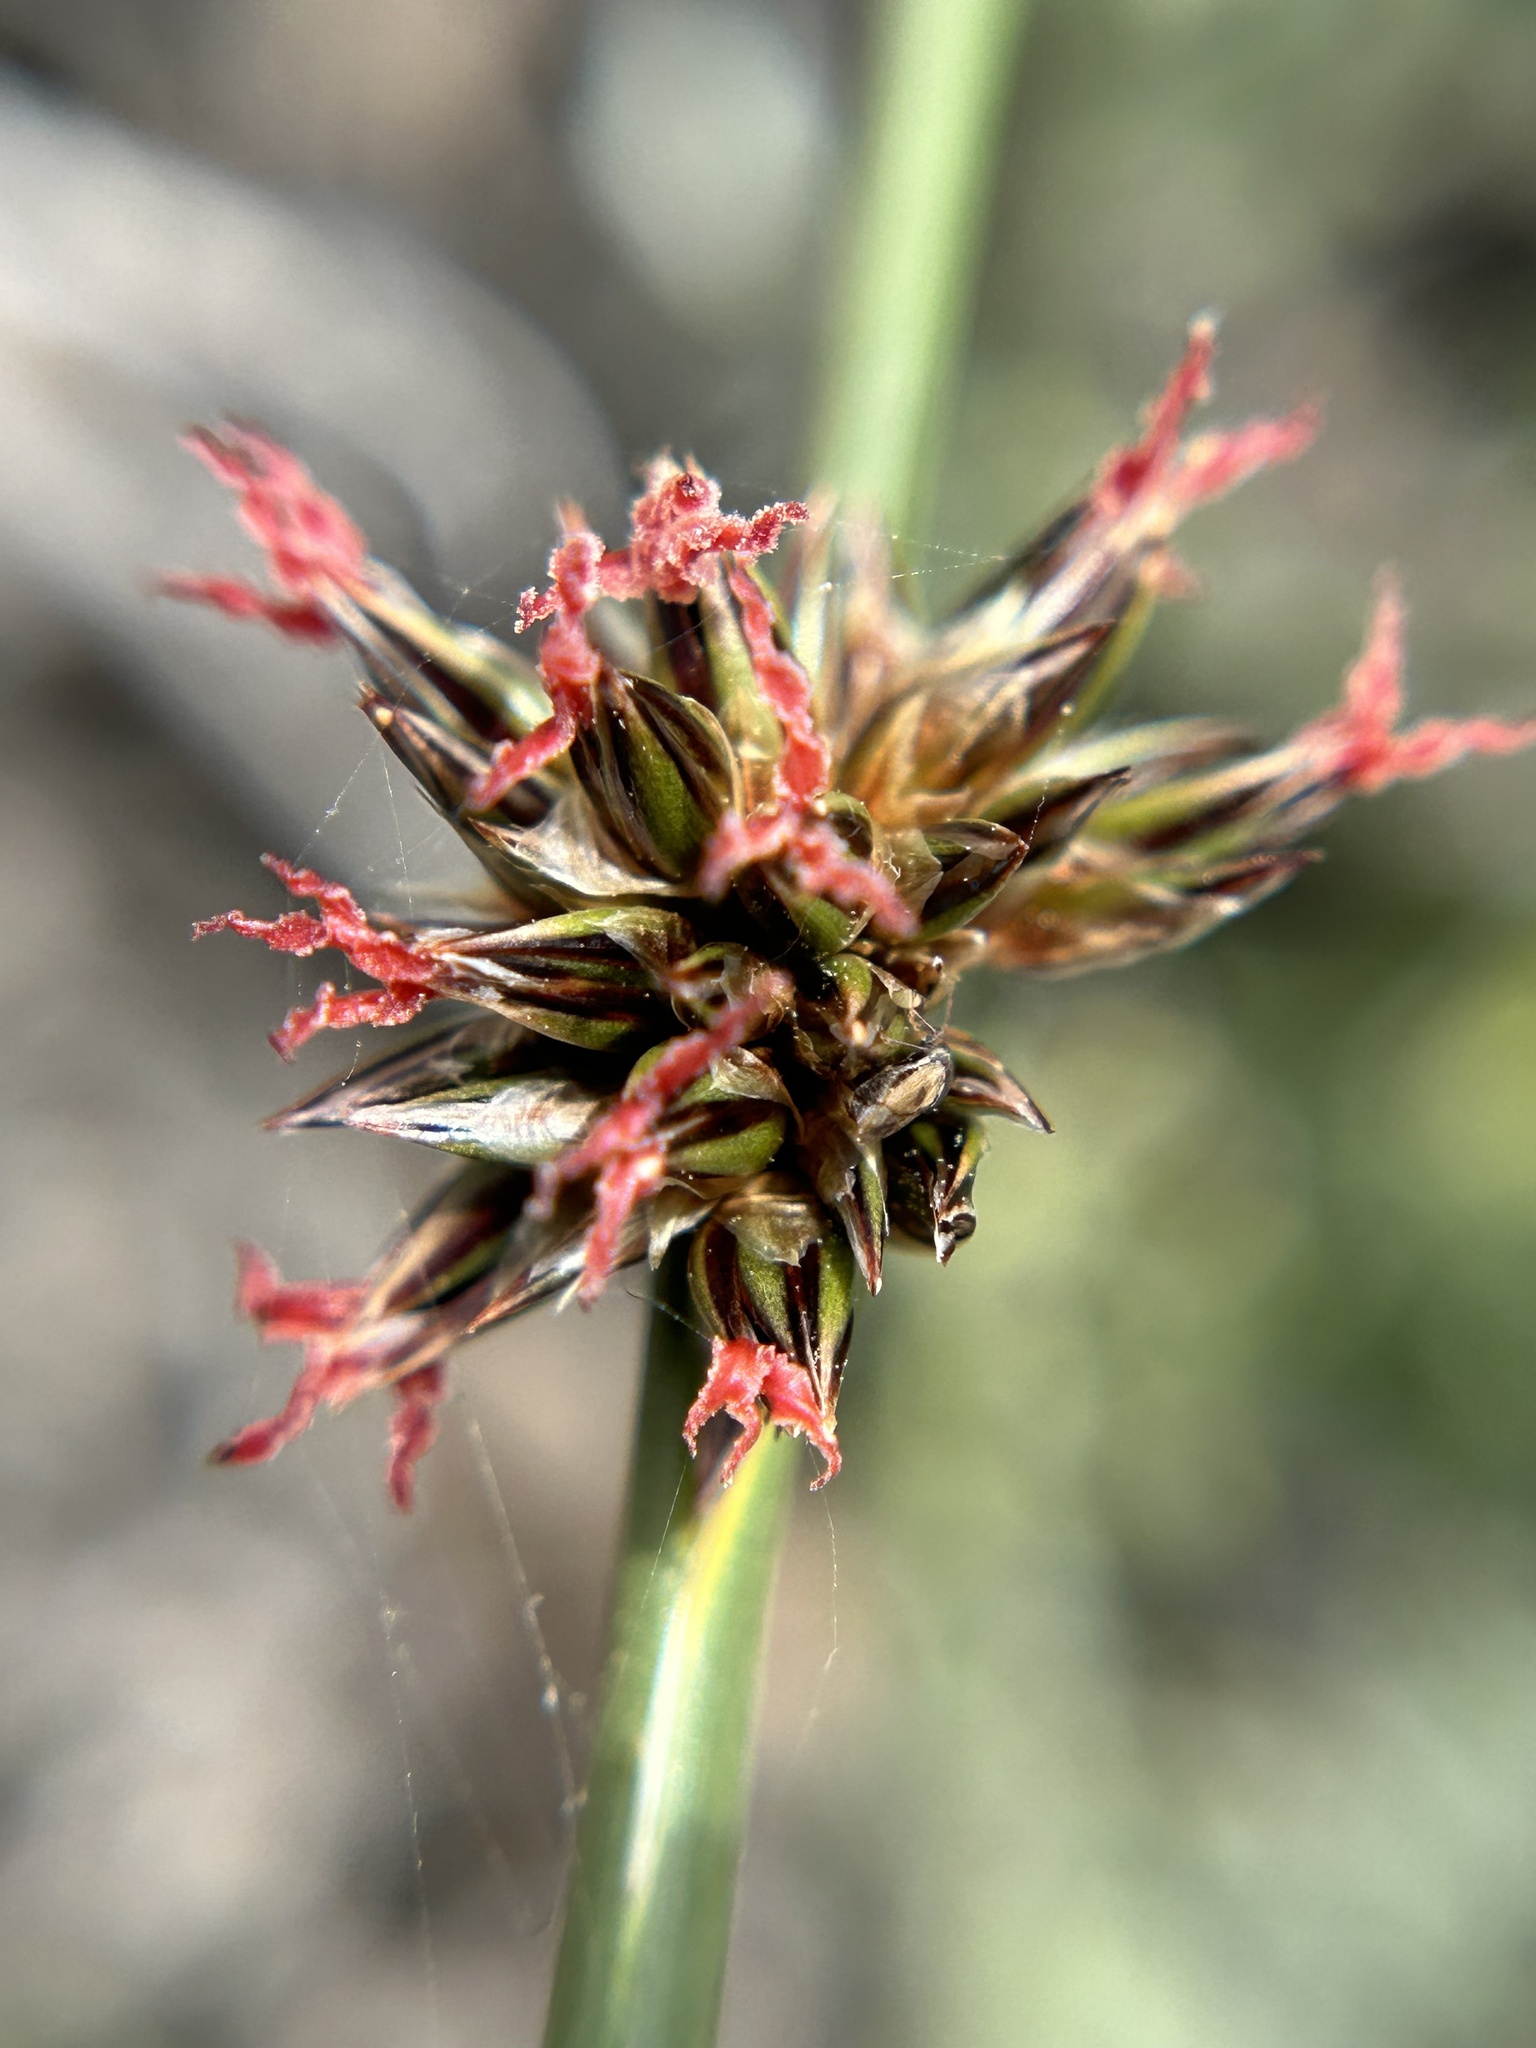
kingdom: Plantae
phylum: Tracheophyta
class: Liliopsida
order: Poales
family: Juncaceae
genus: Juncus
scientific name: Juncus breweri
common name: Brewer's rush
